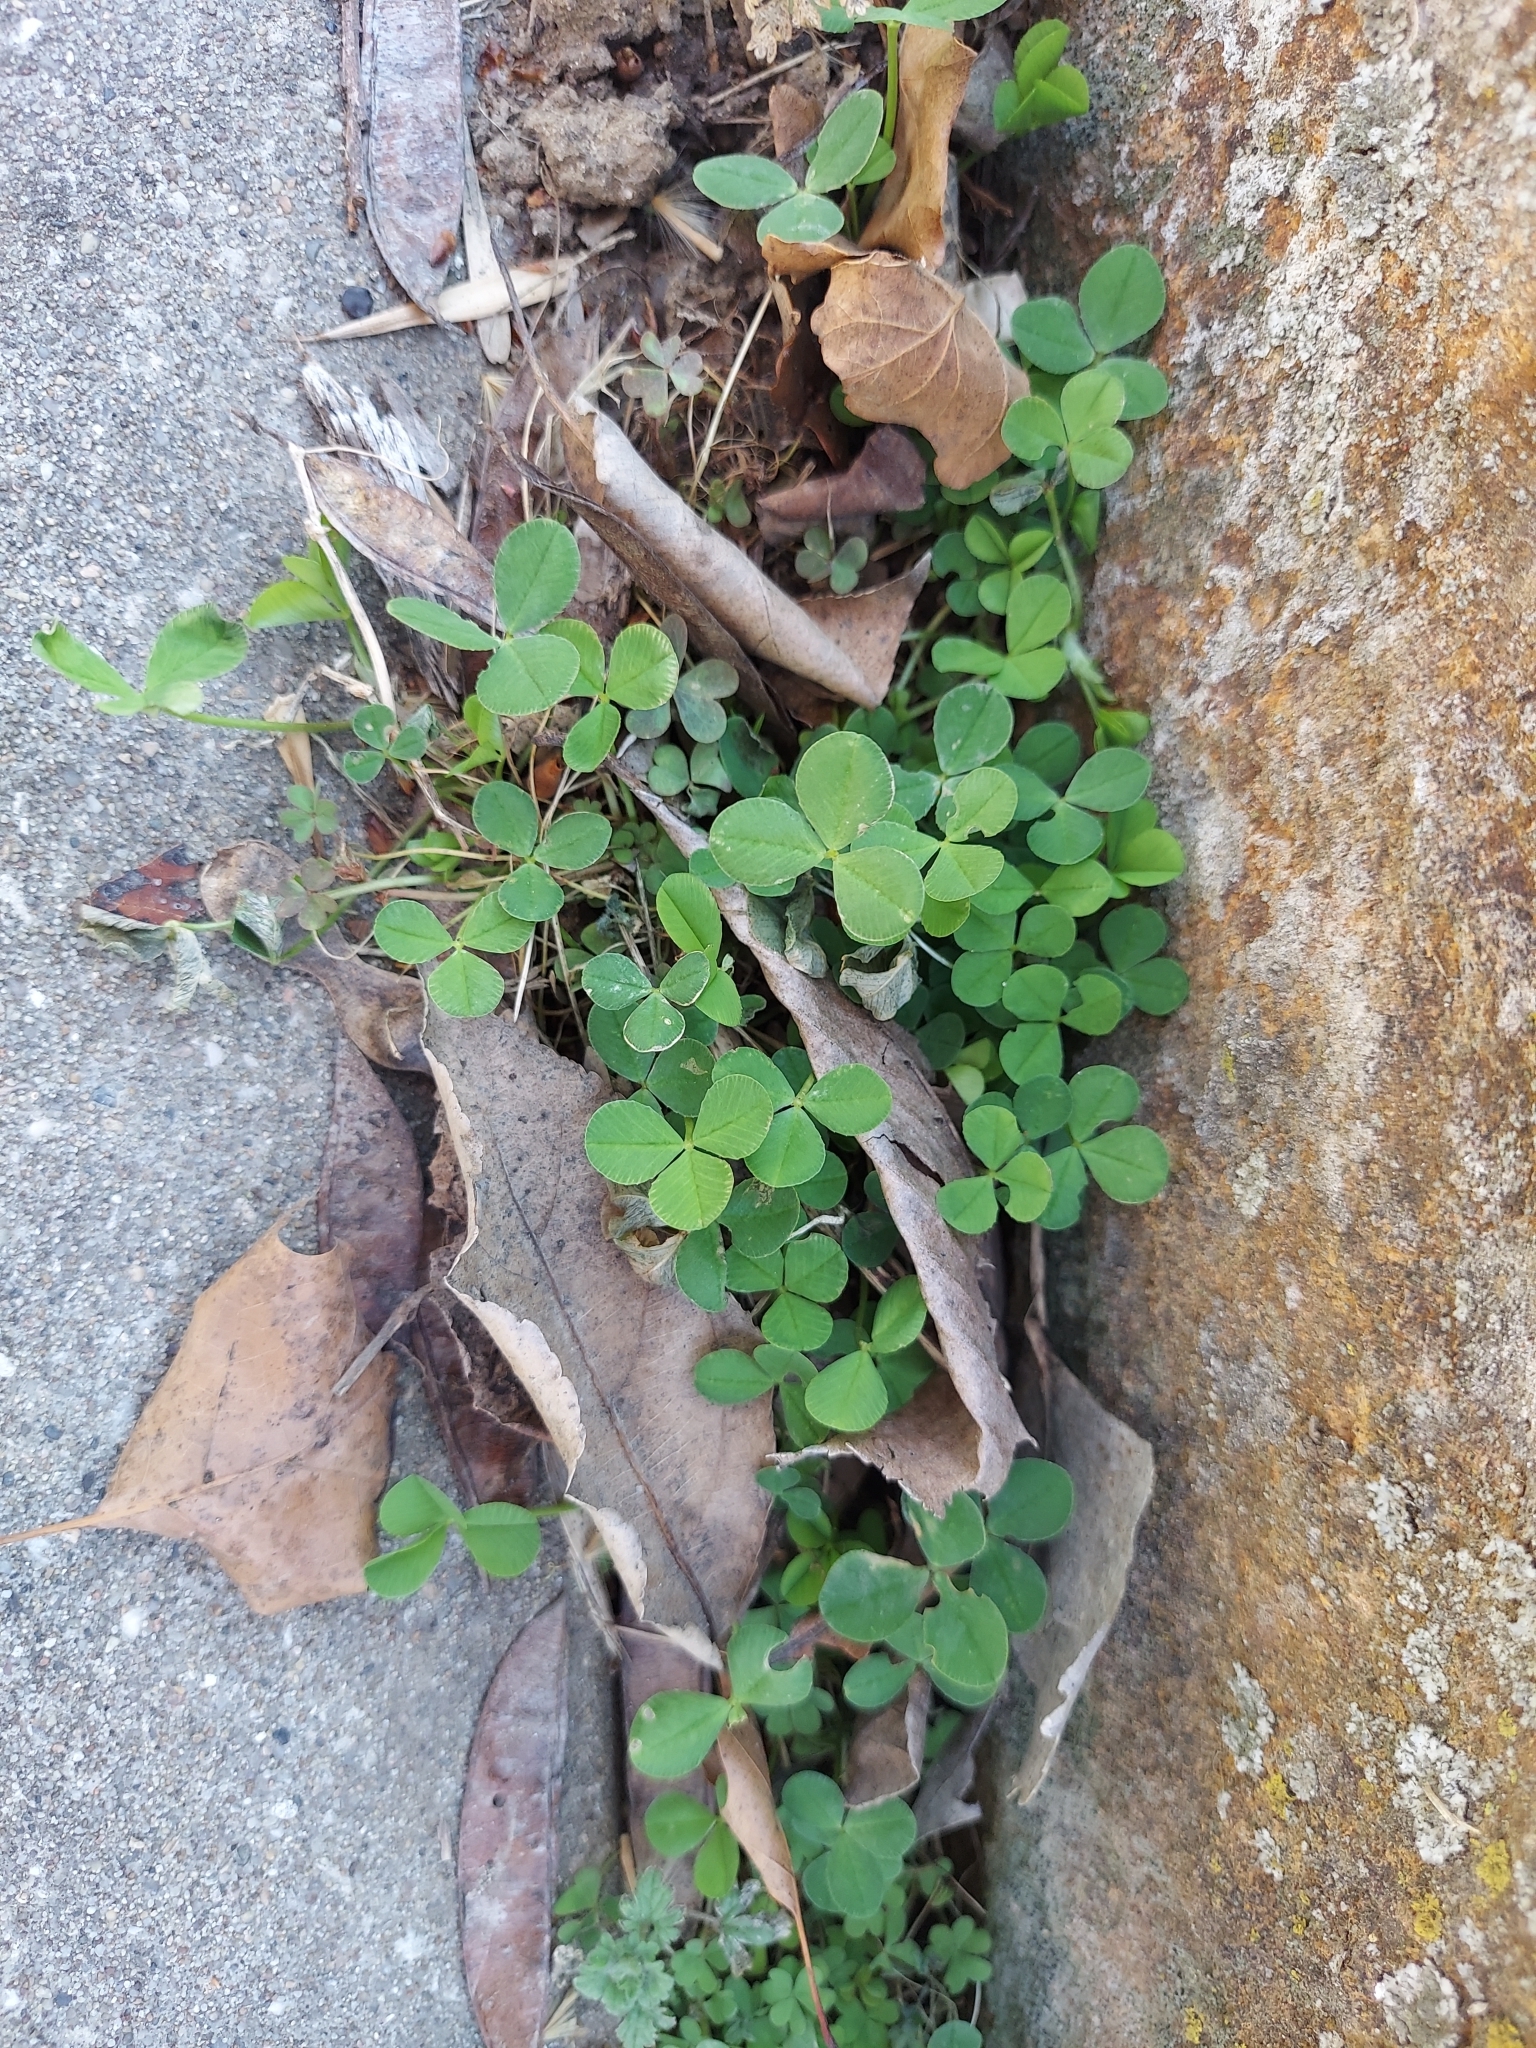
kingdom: Plantae
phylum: Tracheophyta
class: Magnoliopsida
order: Fabales
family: Fabaceae
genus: Medicago
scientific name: Medicago lupulina
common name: Black medick
